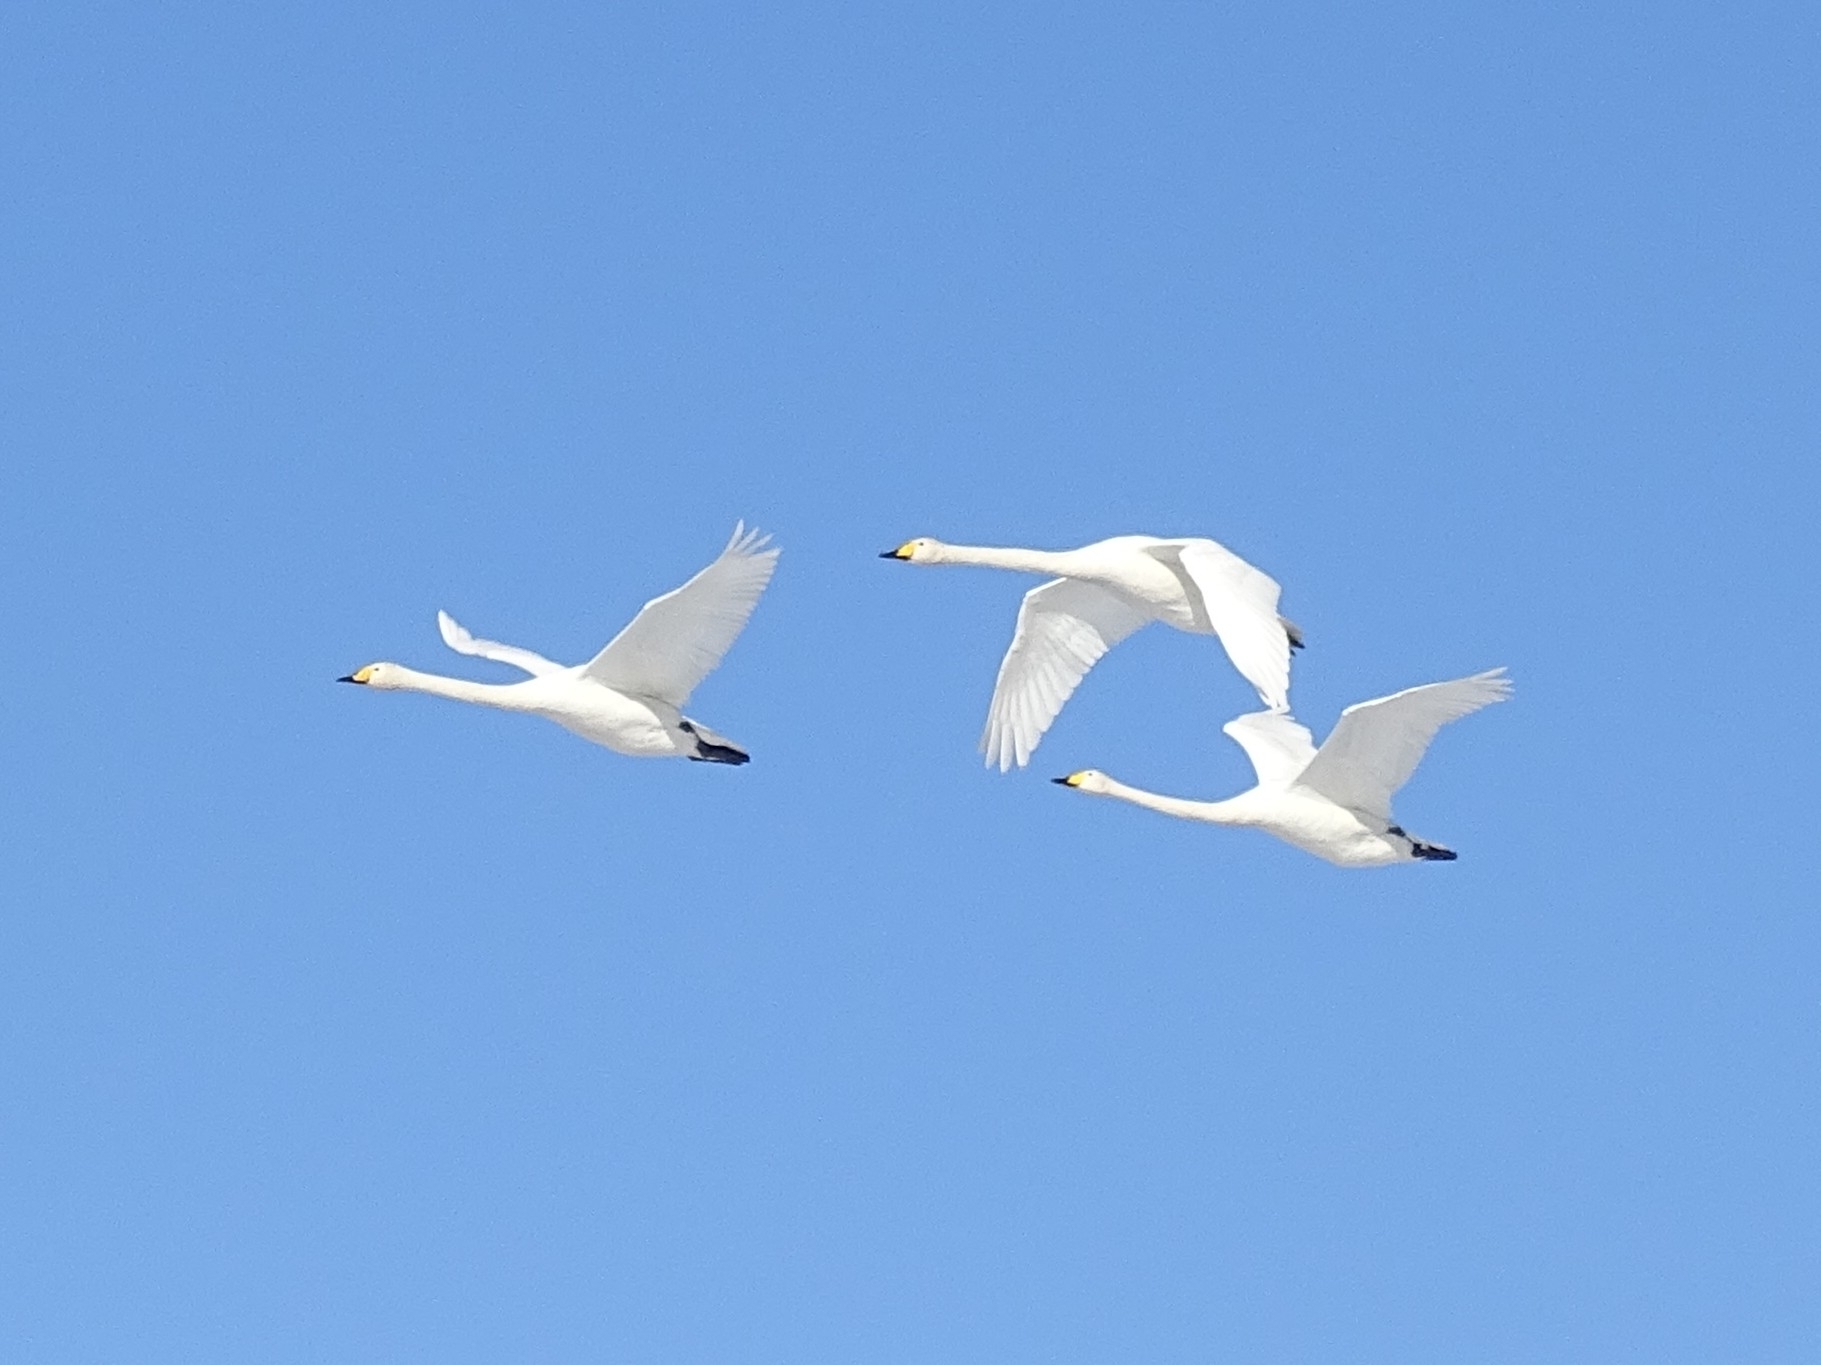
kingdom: Animalia
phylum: Chordata
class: Aves
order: Anseriformes
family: Anatidae
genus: Cygnus
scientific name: Cygnus cygnus
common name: Whooper swan
